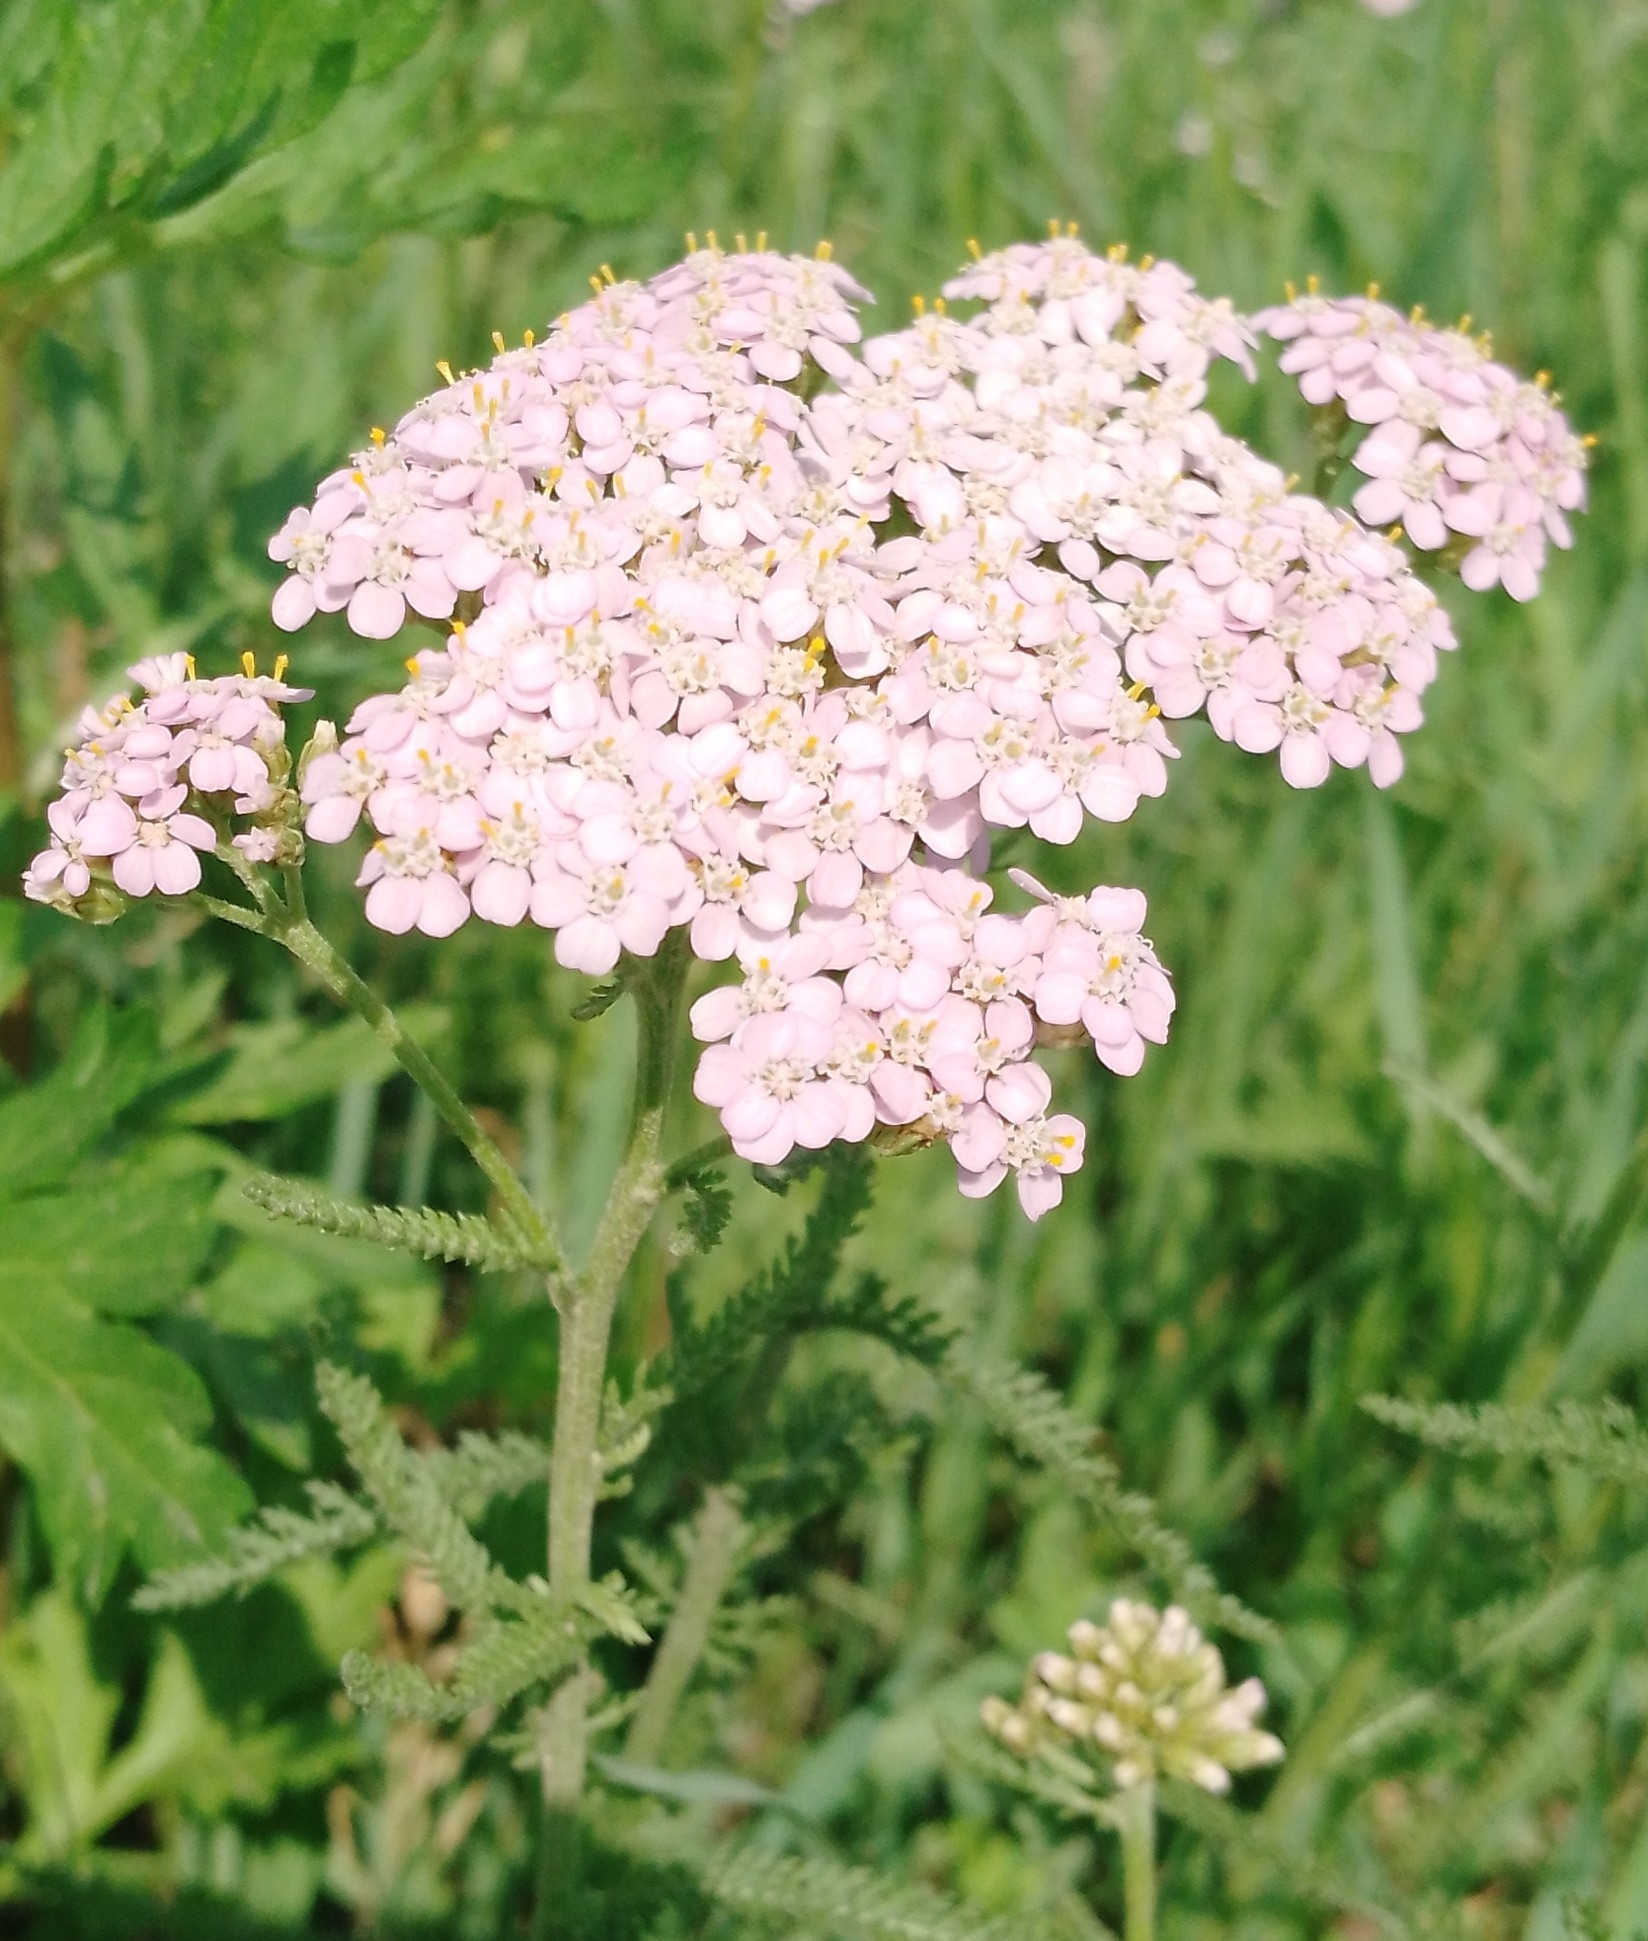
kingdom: Plantae
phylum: Tracheophyta
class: Magnoliopsida
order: Asterales
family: Asteraceae
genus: Achillea
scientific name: Achillea asiatica
